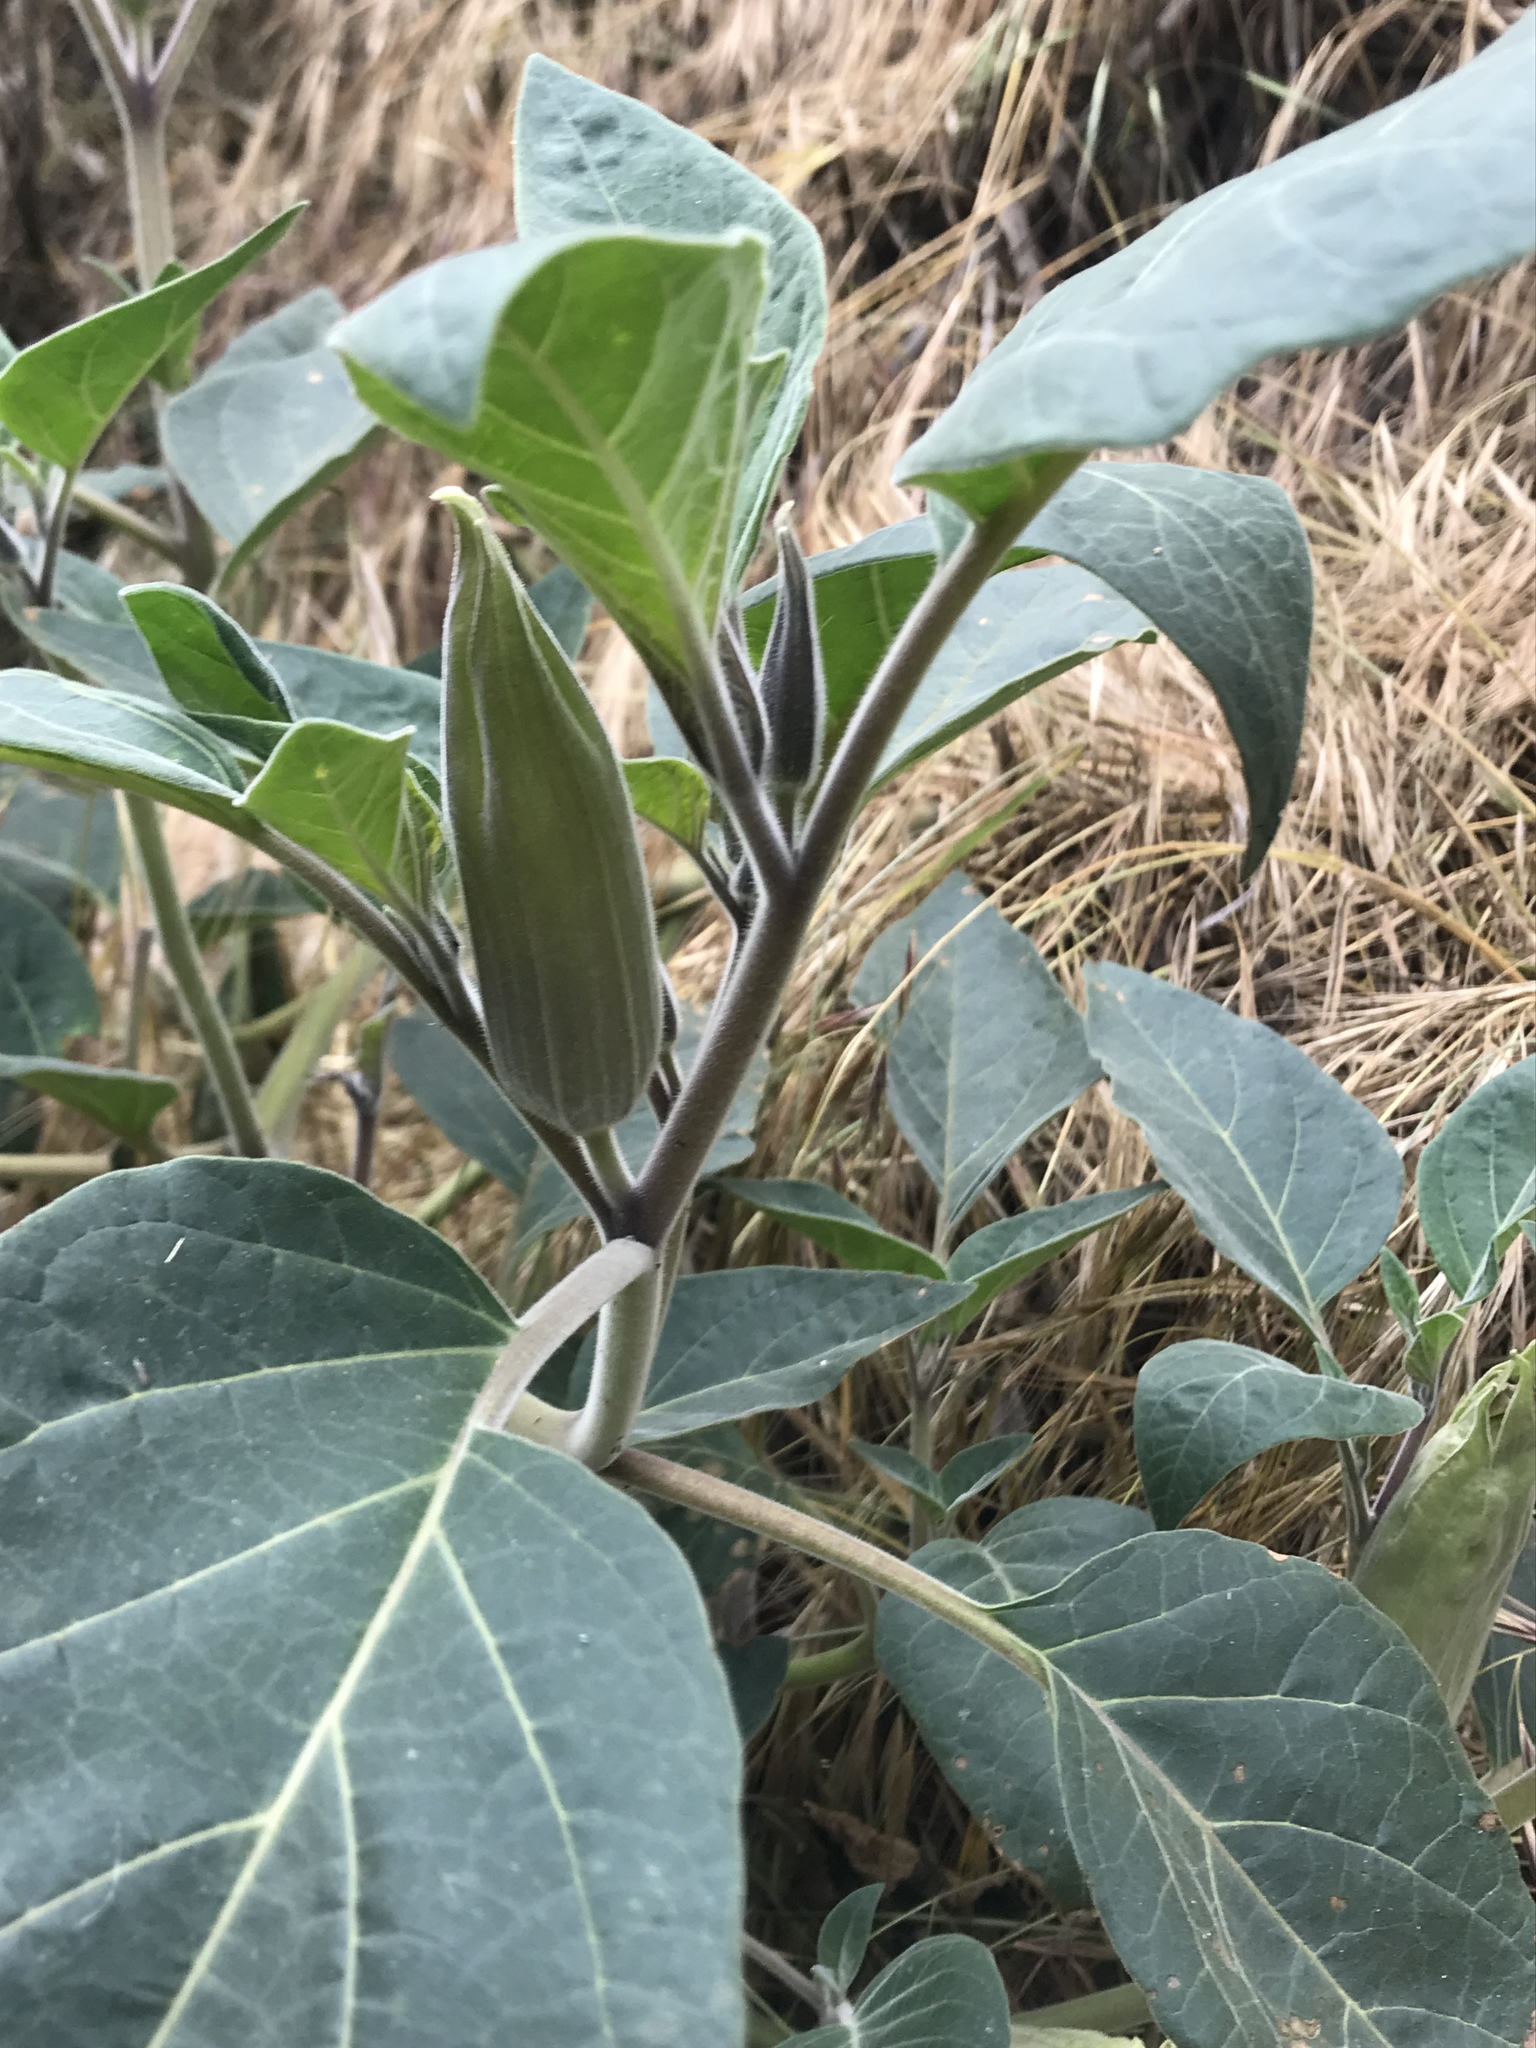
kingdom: Plantae
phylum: Tracheophyta
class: Magnoliopsida
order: Solanales
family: Solanaceae
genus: Datura
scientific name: Datura wrightii
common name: Sacred thorn-apple
